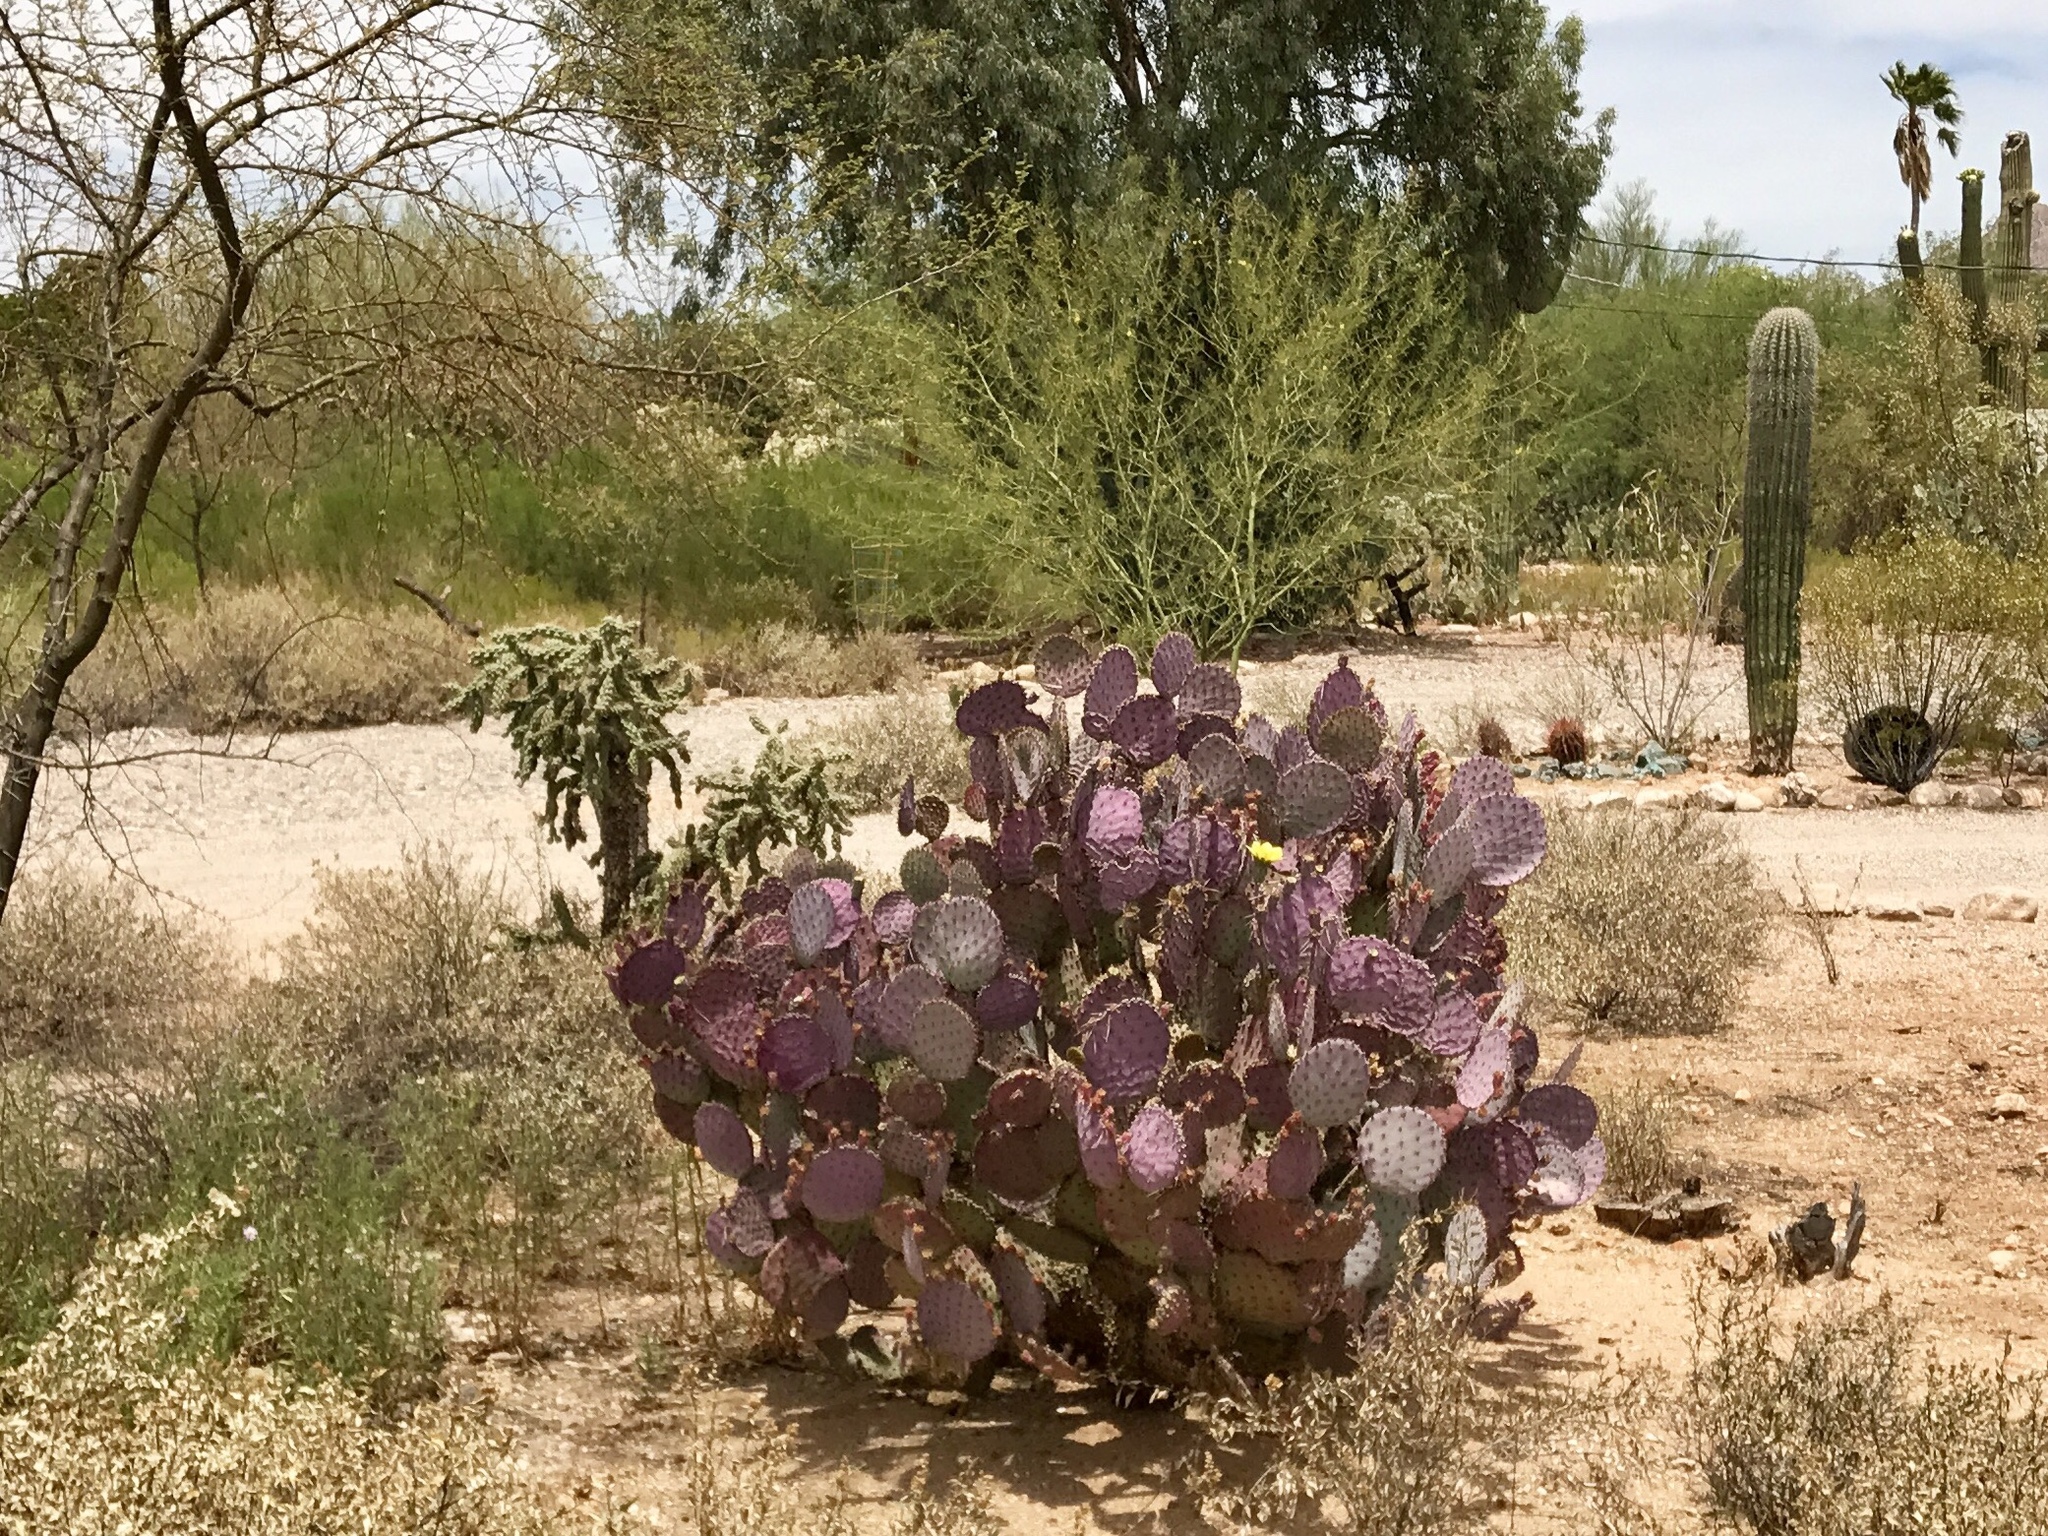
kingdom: Plantae
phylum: Tracheophyta
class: Magnoliopsida
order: Caryophyllales
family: Cactaceae
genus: Opuntia
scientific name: Opuntia gosseliniana
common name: Violet prickly-pear
